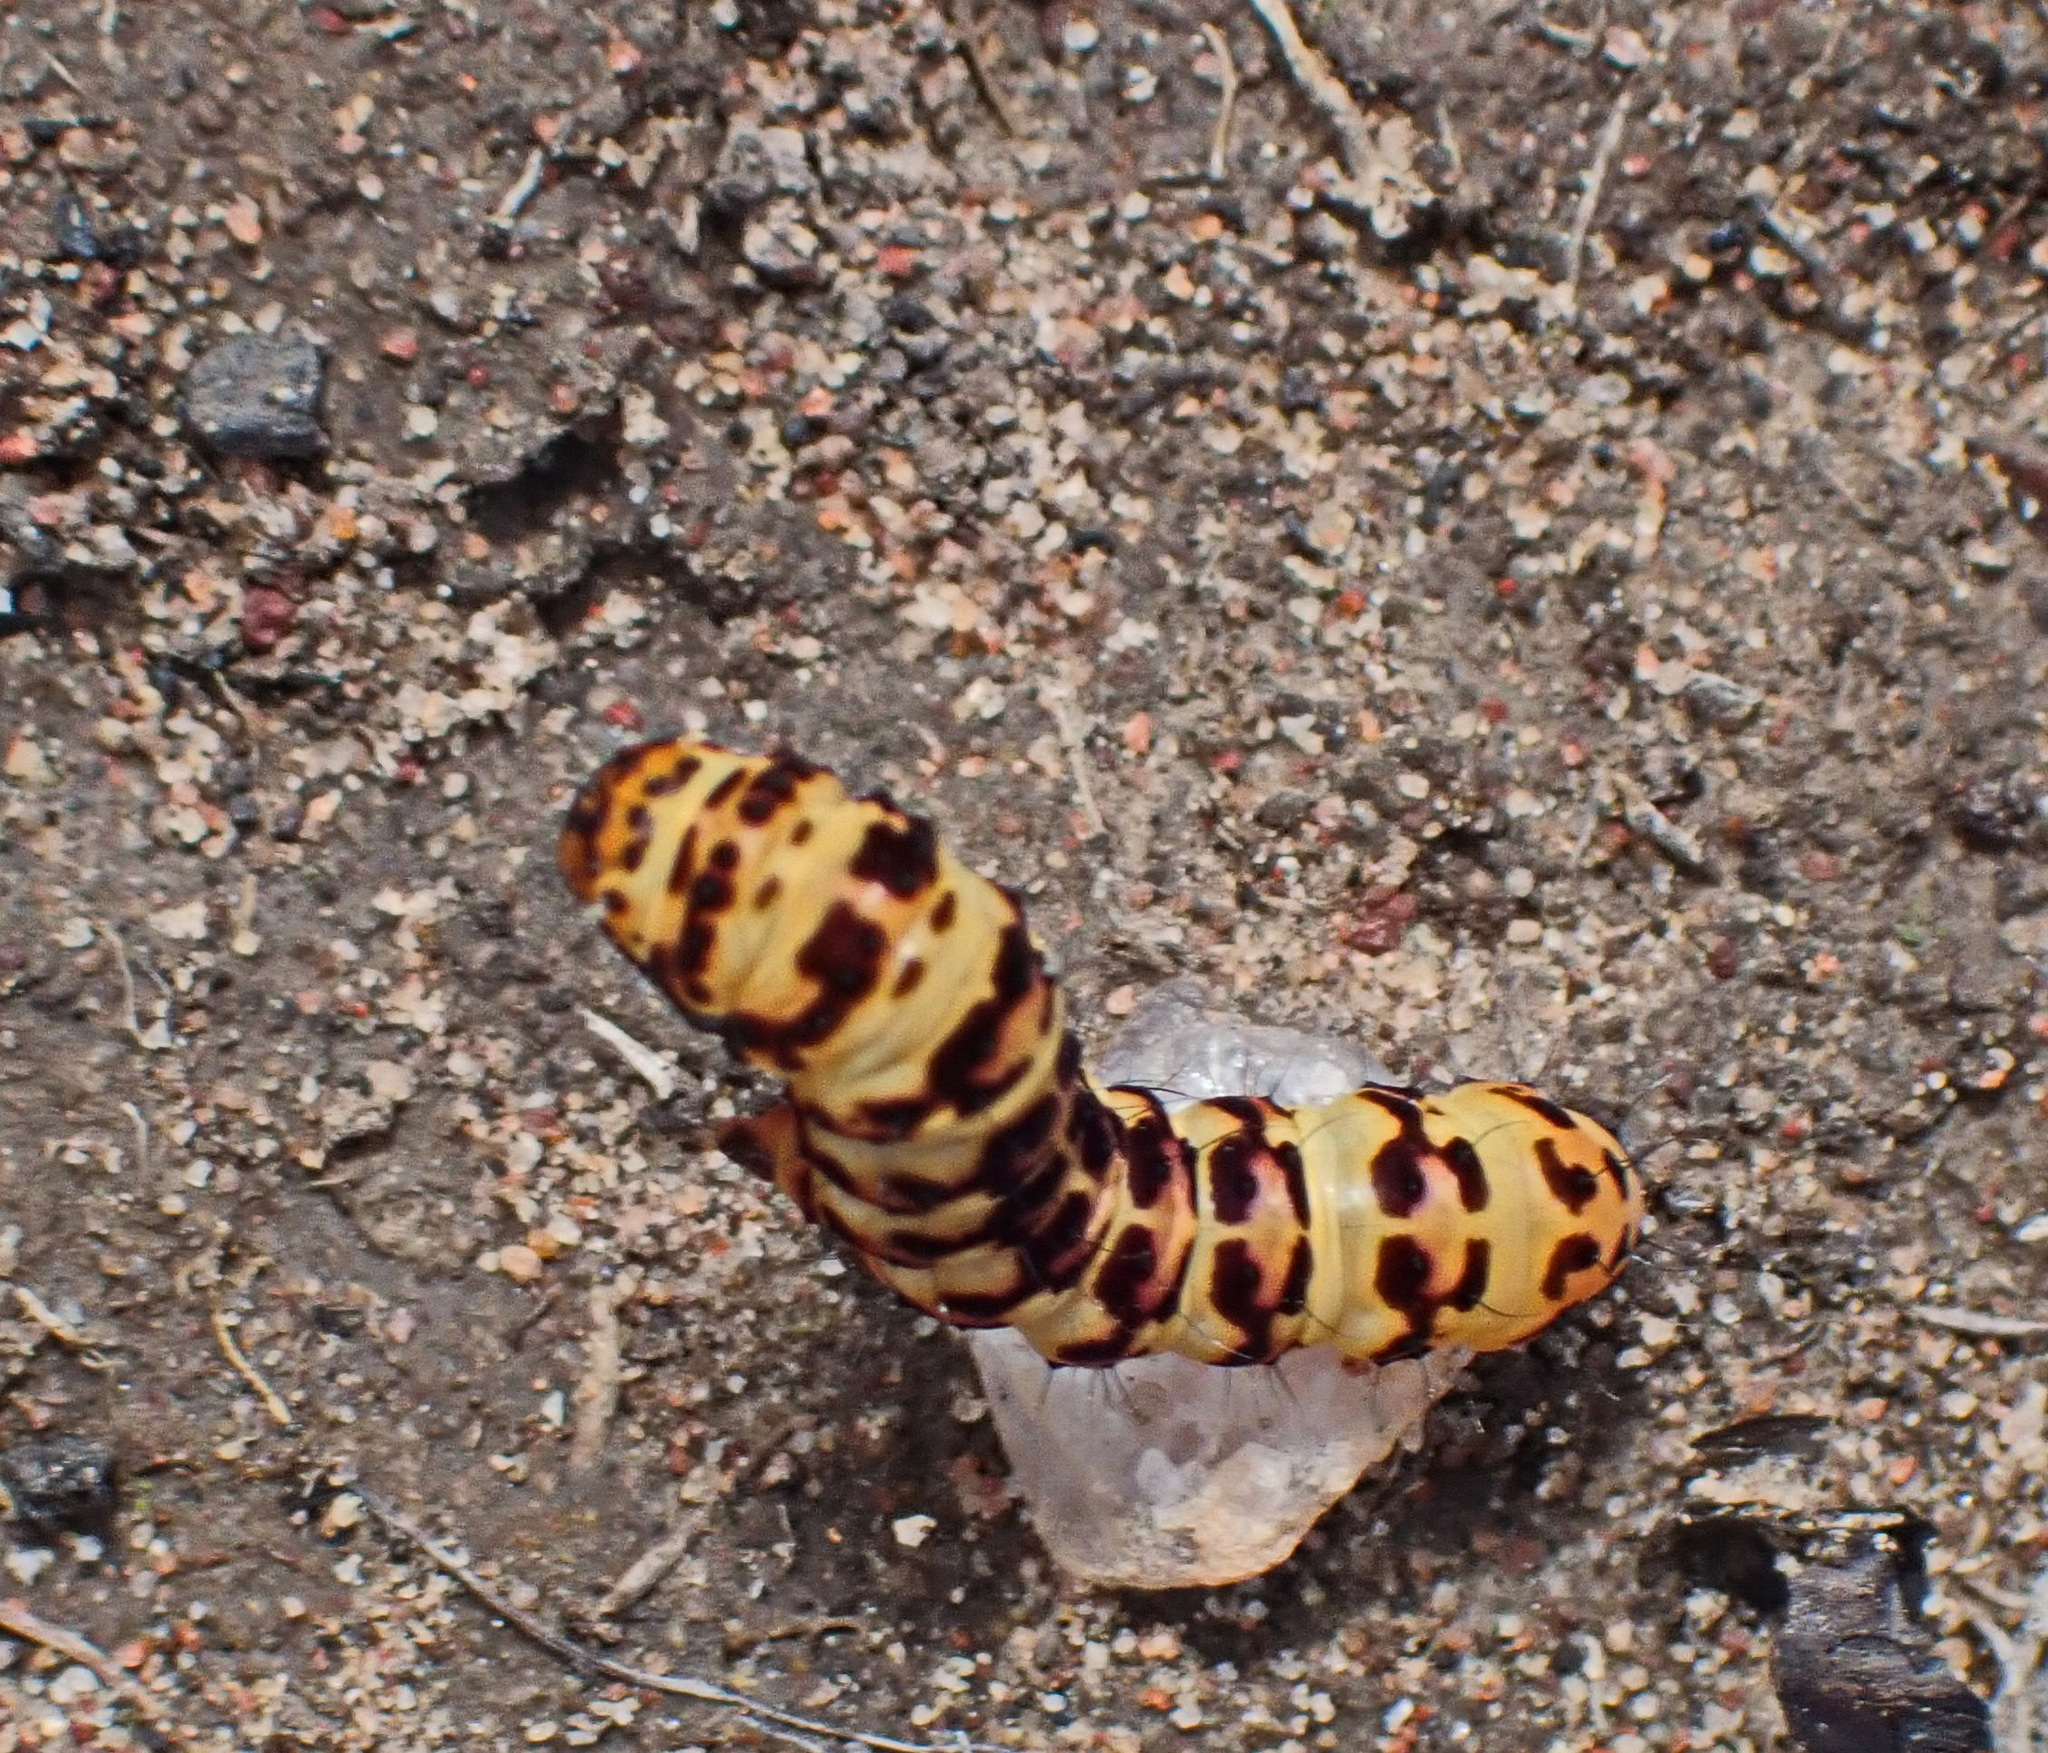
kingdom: Animalia
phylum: Arthropoda
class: Insecta
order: Lepidoptera
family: Noctuidae
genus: Diaphone
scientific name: Diaphone eumela
